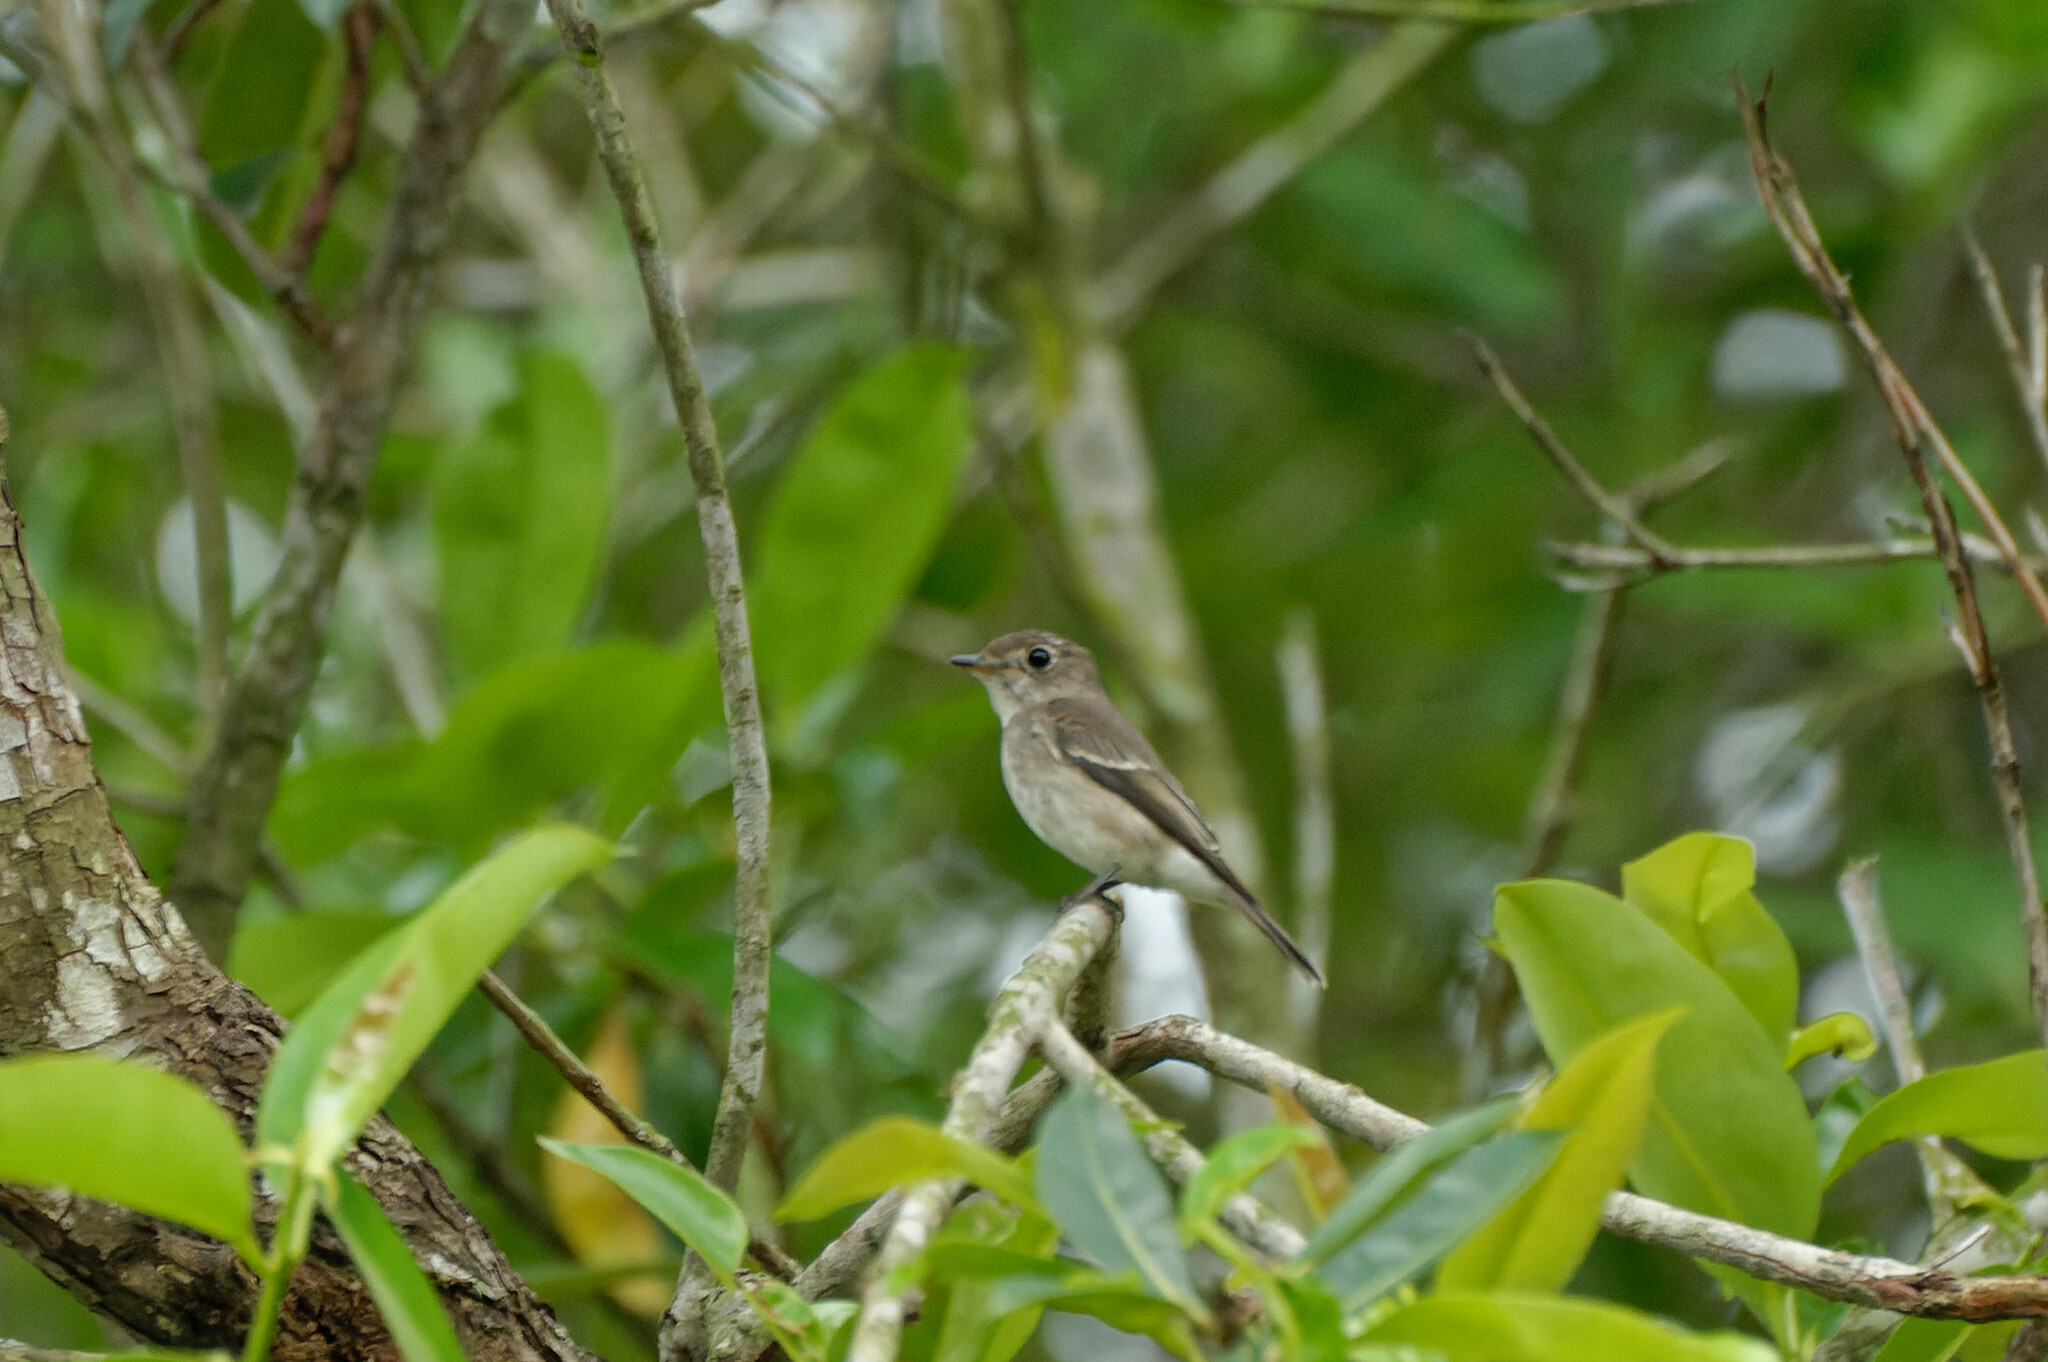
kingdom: Animalia
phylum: Chordata
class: Aves
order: Passeriformes
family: Muscicapidae
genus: Muscicapa
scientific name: Muscicapa latirostris
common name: Asian brown flycatcher
